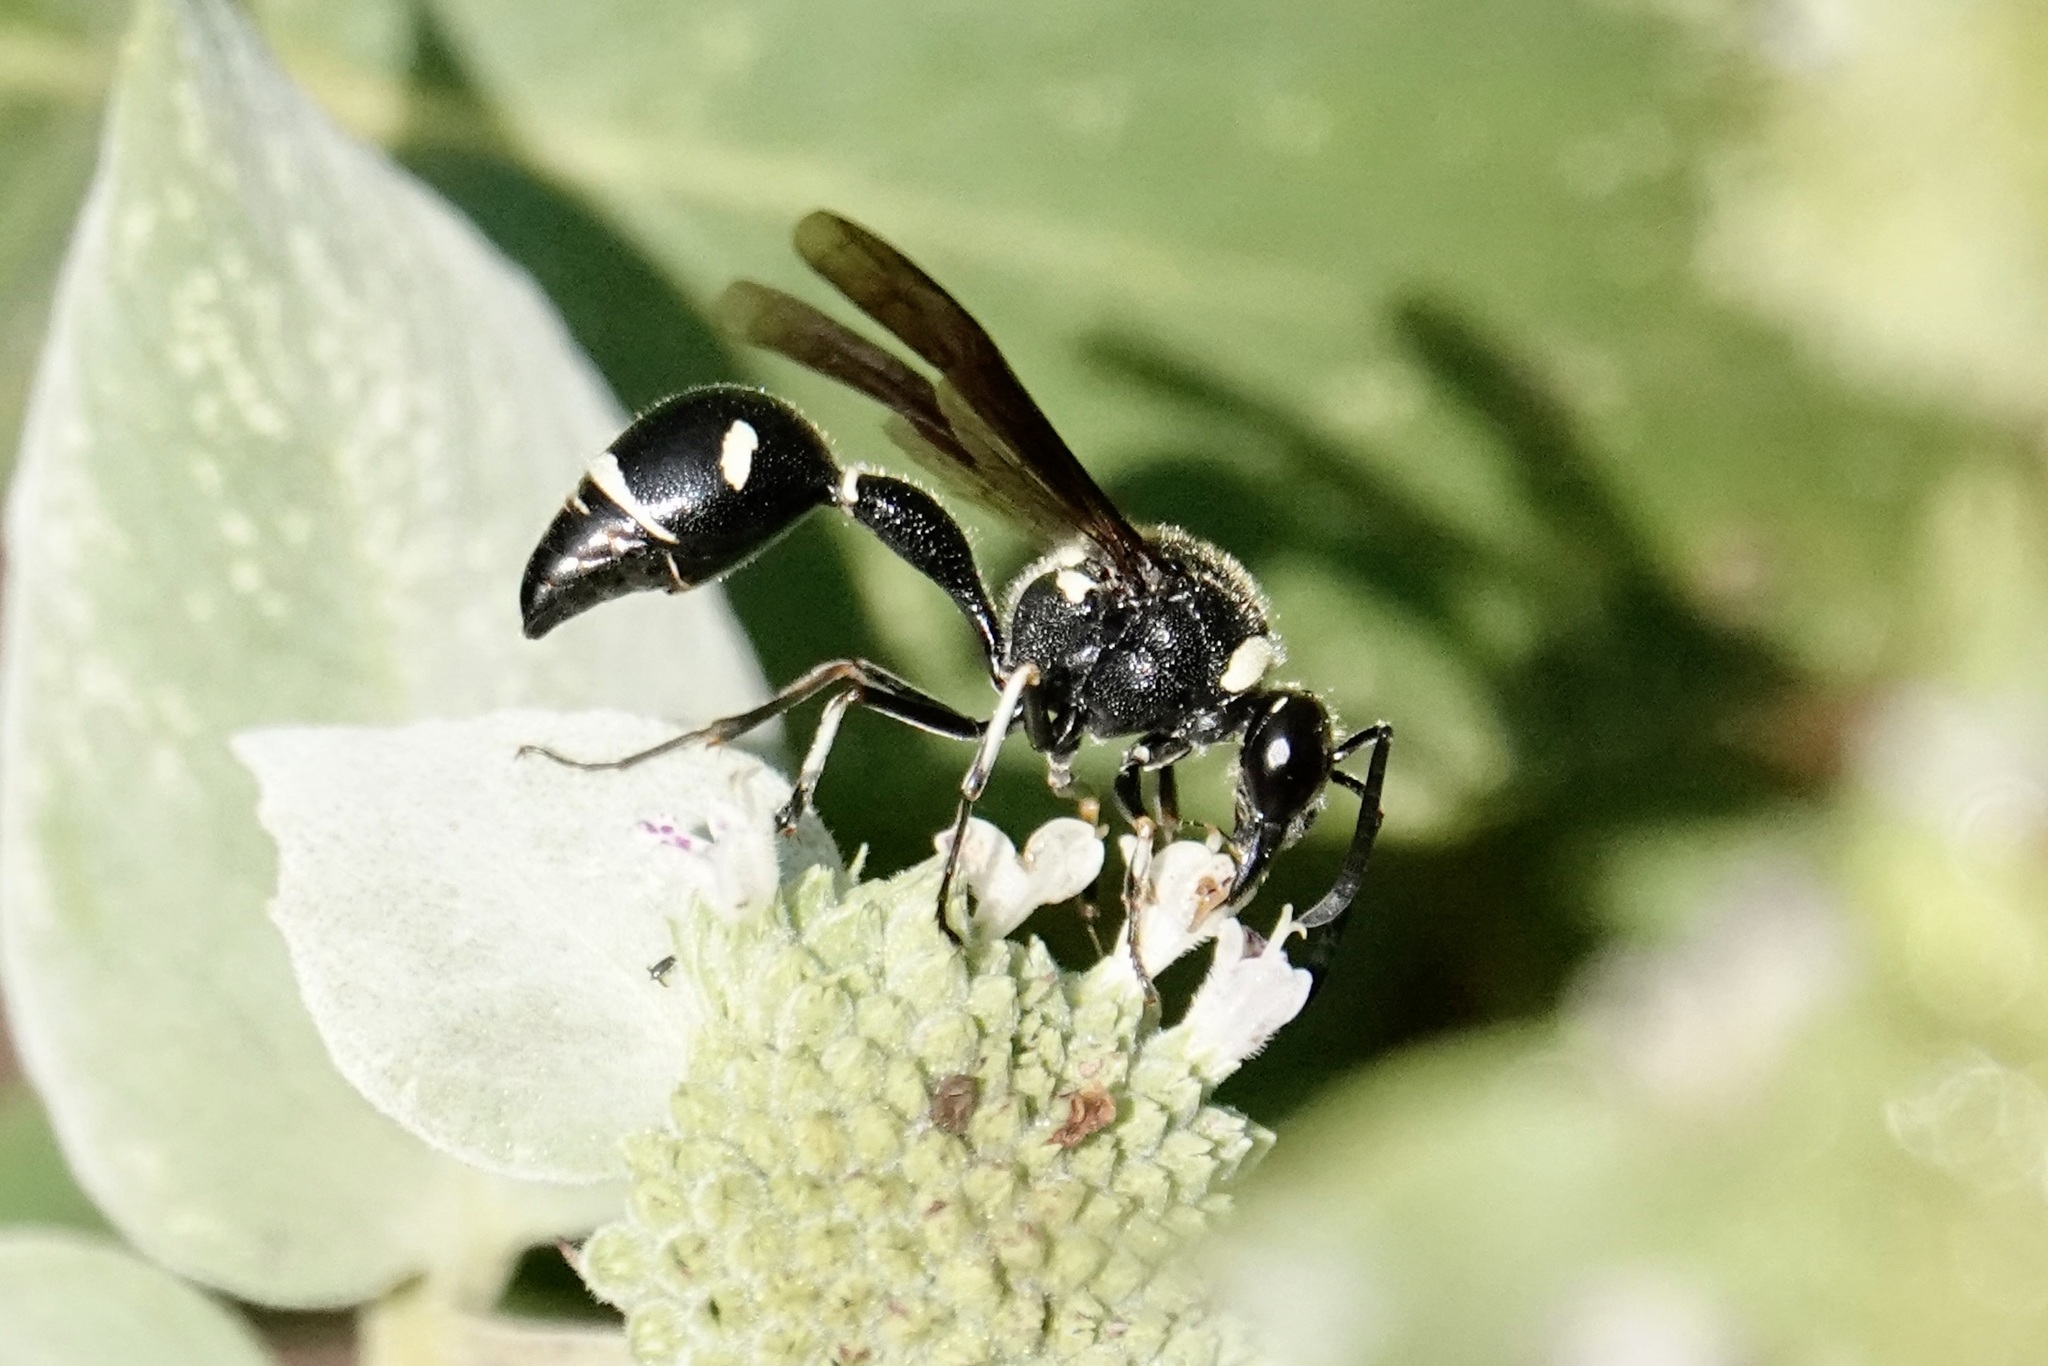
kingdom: Animalia
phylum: Arthropoda
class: Insecta
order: Hymenoptera
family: Vespidae
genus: Eumenes
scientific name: Eumenes fraternus
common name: Fraternal potter wasp
